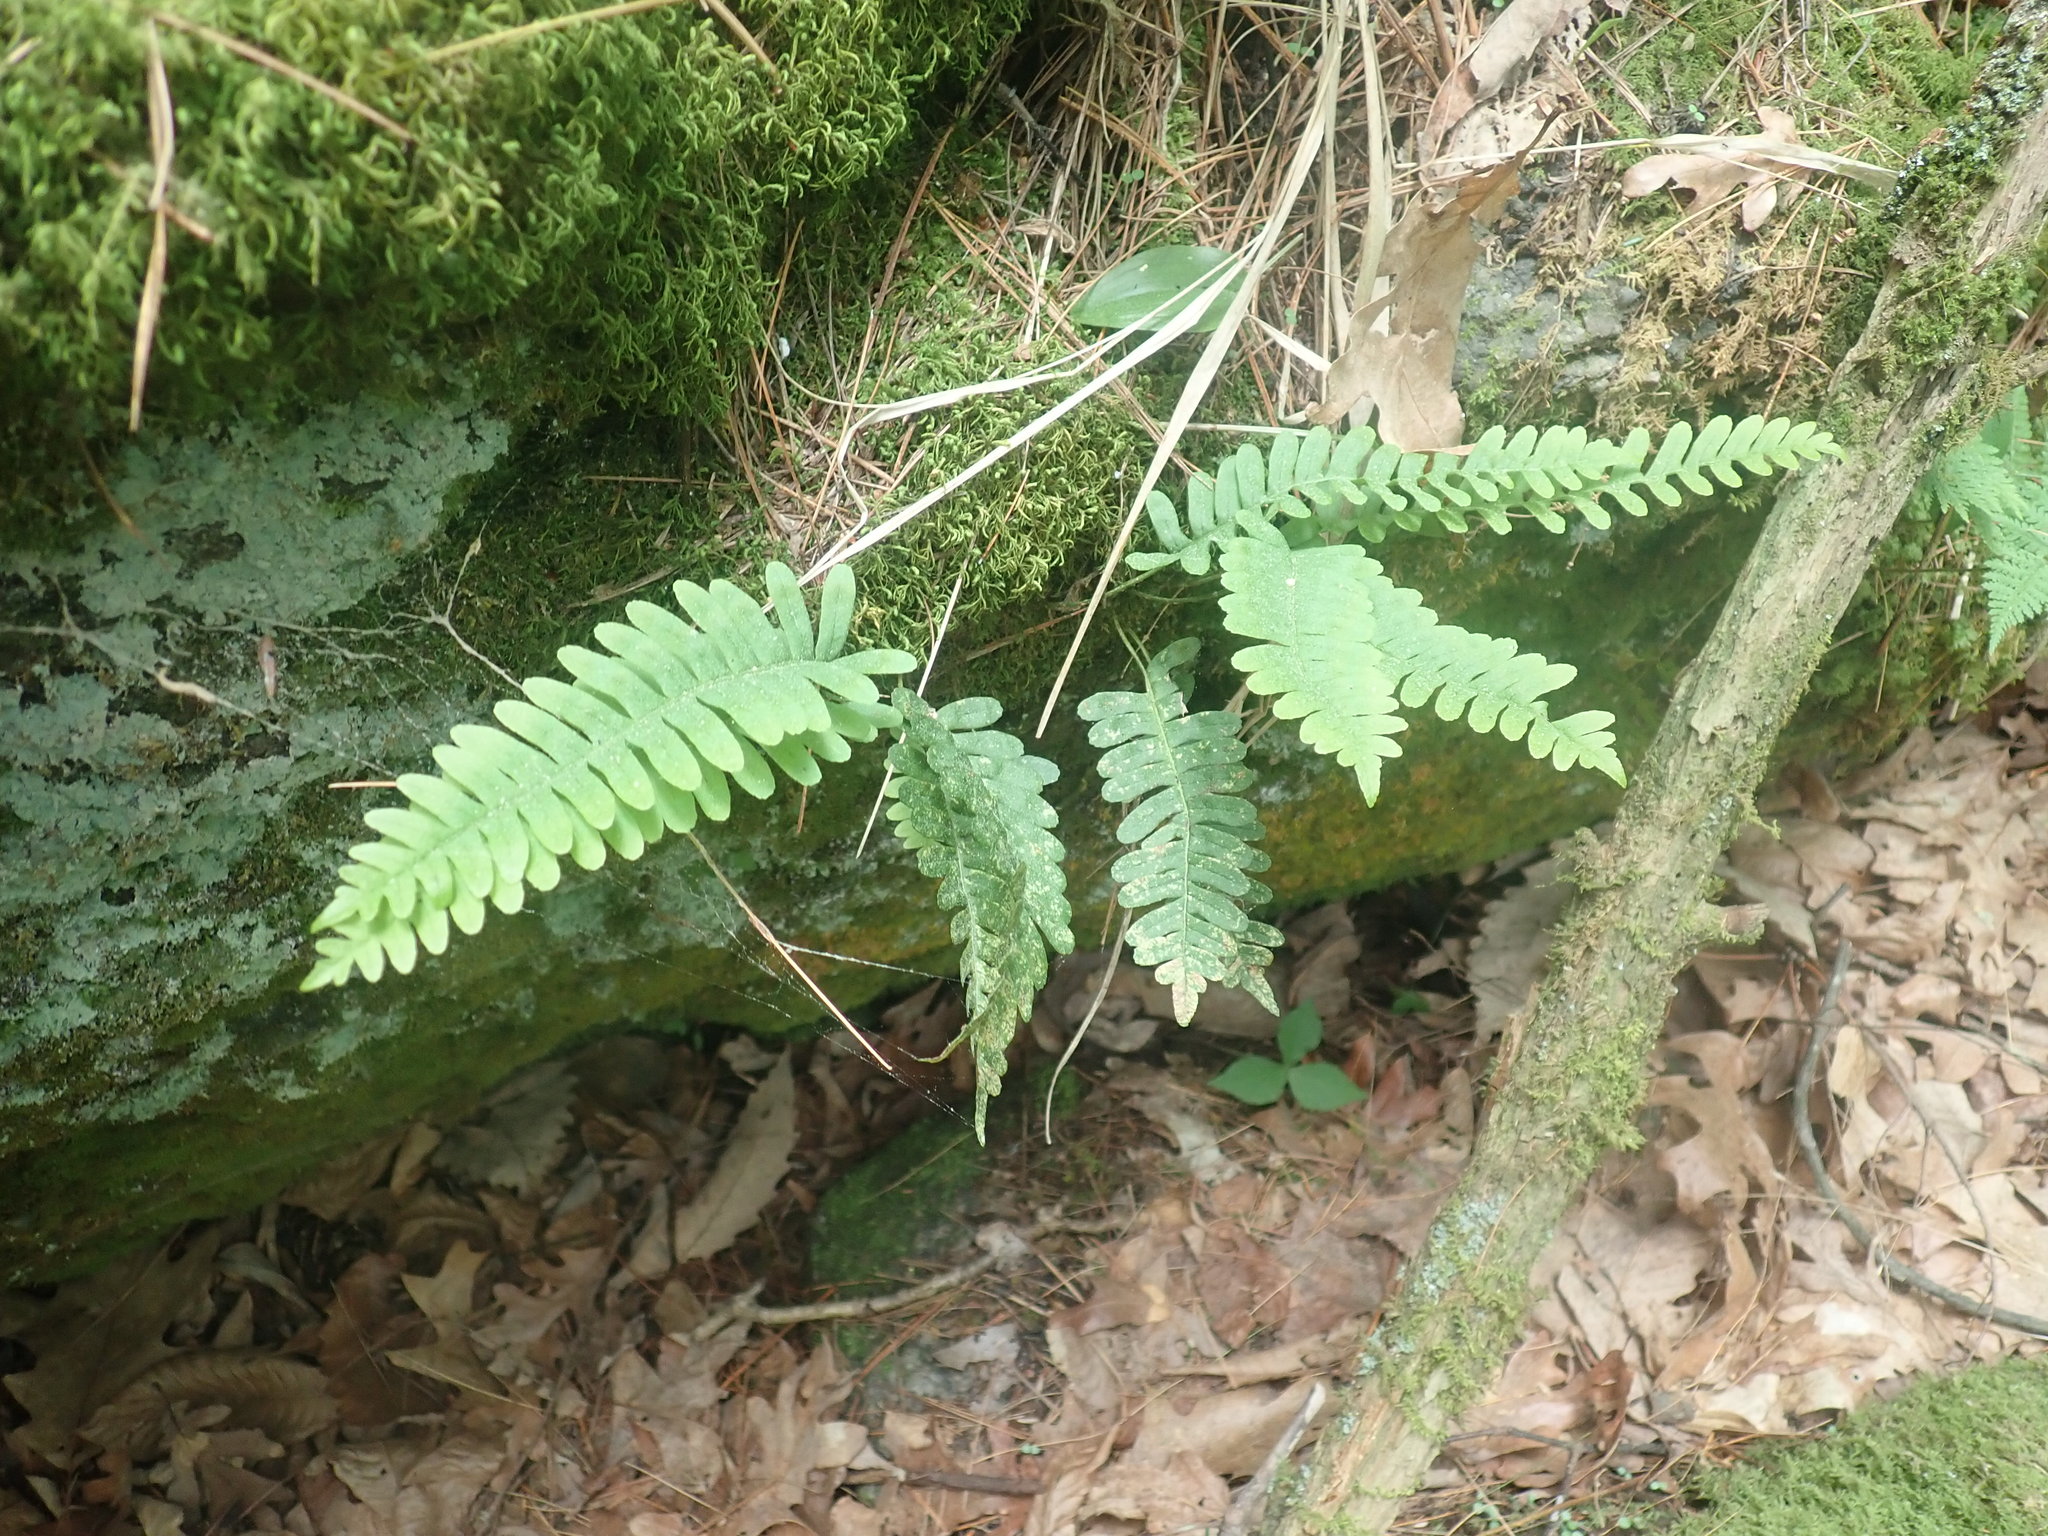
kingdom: Plantae
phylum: Tracheophyta
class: Polypodiopsida
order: Polypodiales
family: Polypodiaceae
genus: Polypodium
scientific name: Polypodium
